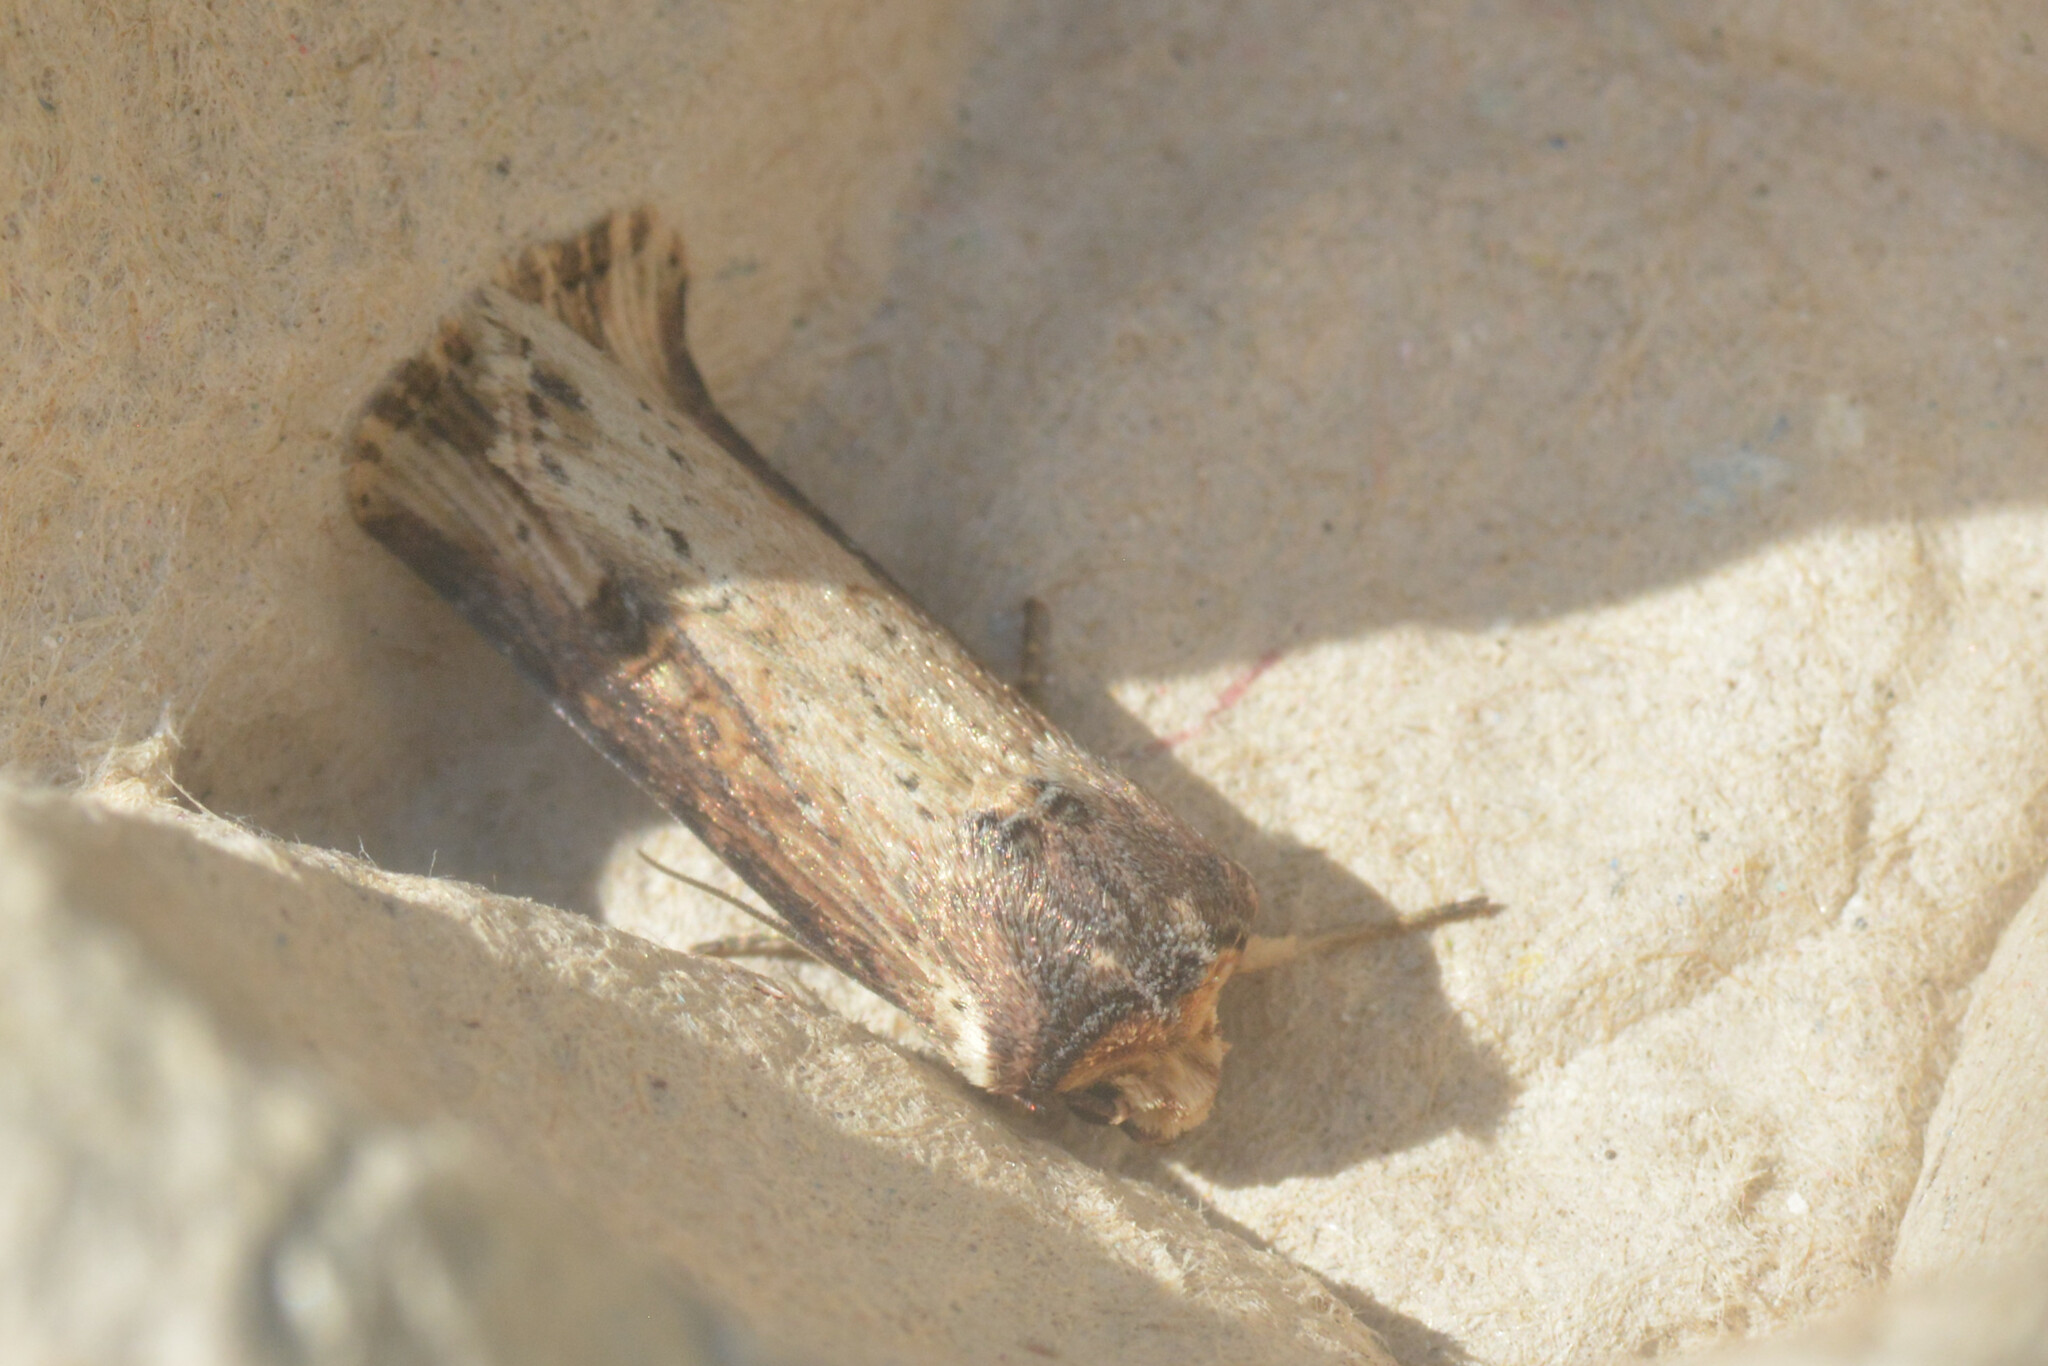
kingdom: Animalia
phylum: Arthropoda
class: Insecta
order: Lepidoptera
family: Noctuidae
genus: Axylia
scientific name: Axylia putris
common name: Flame
